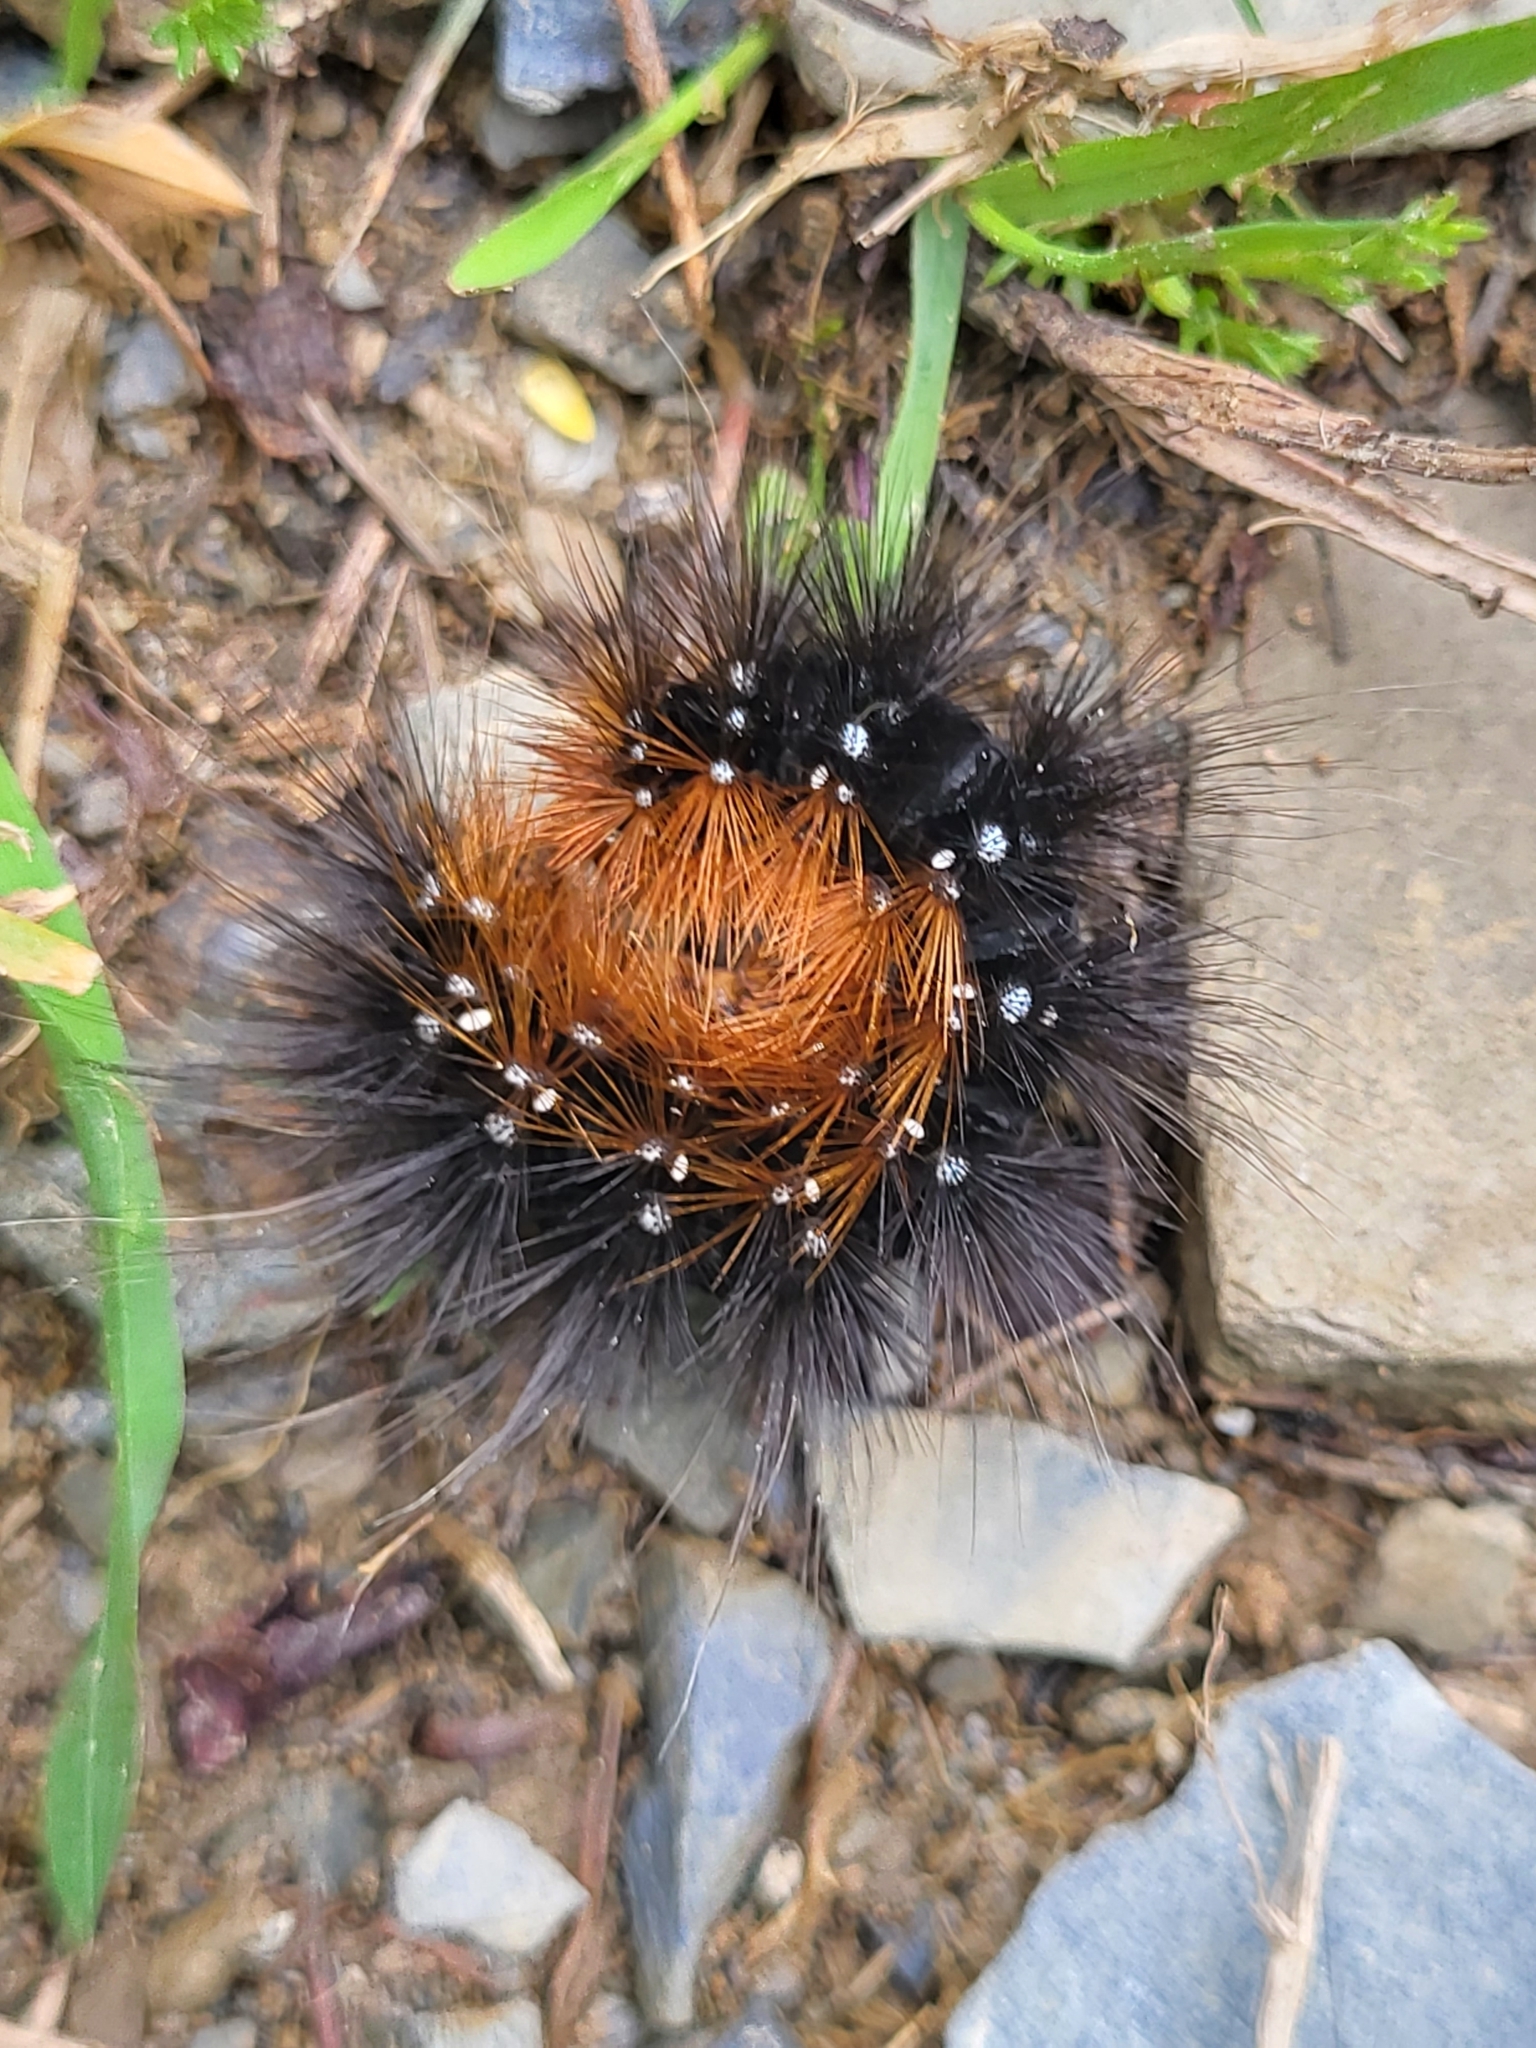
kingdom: Animalia
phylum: Arthropoda
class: Insecta
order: Lepidoptera
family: Erebidae
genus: Arctia
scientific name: Arctia caja
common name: Garden tiger
